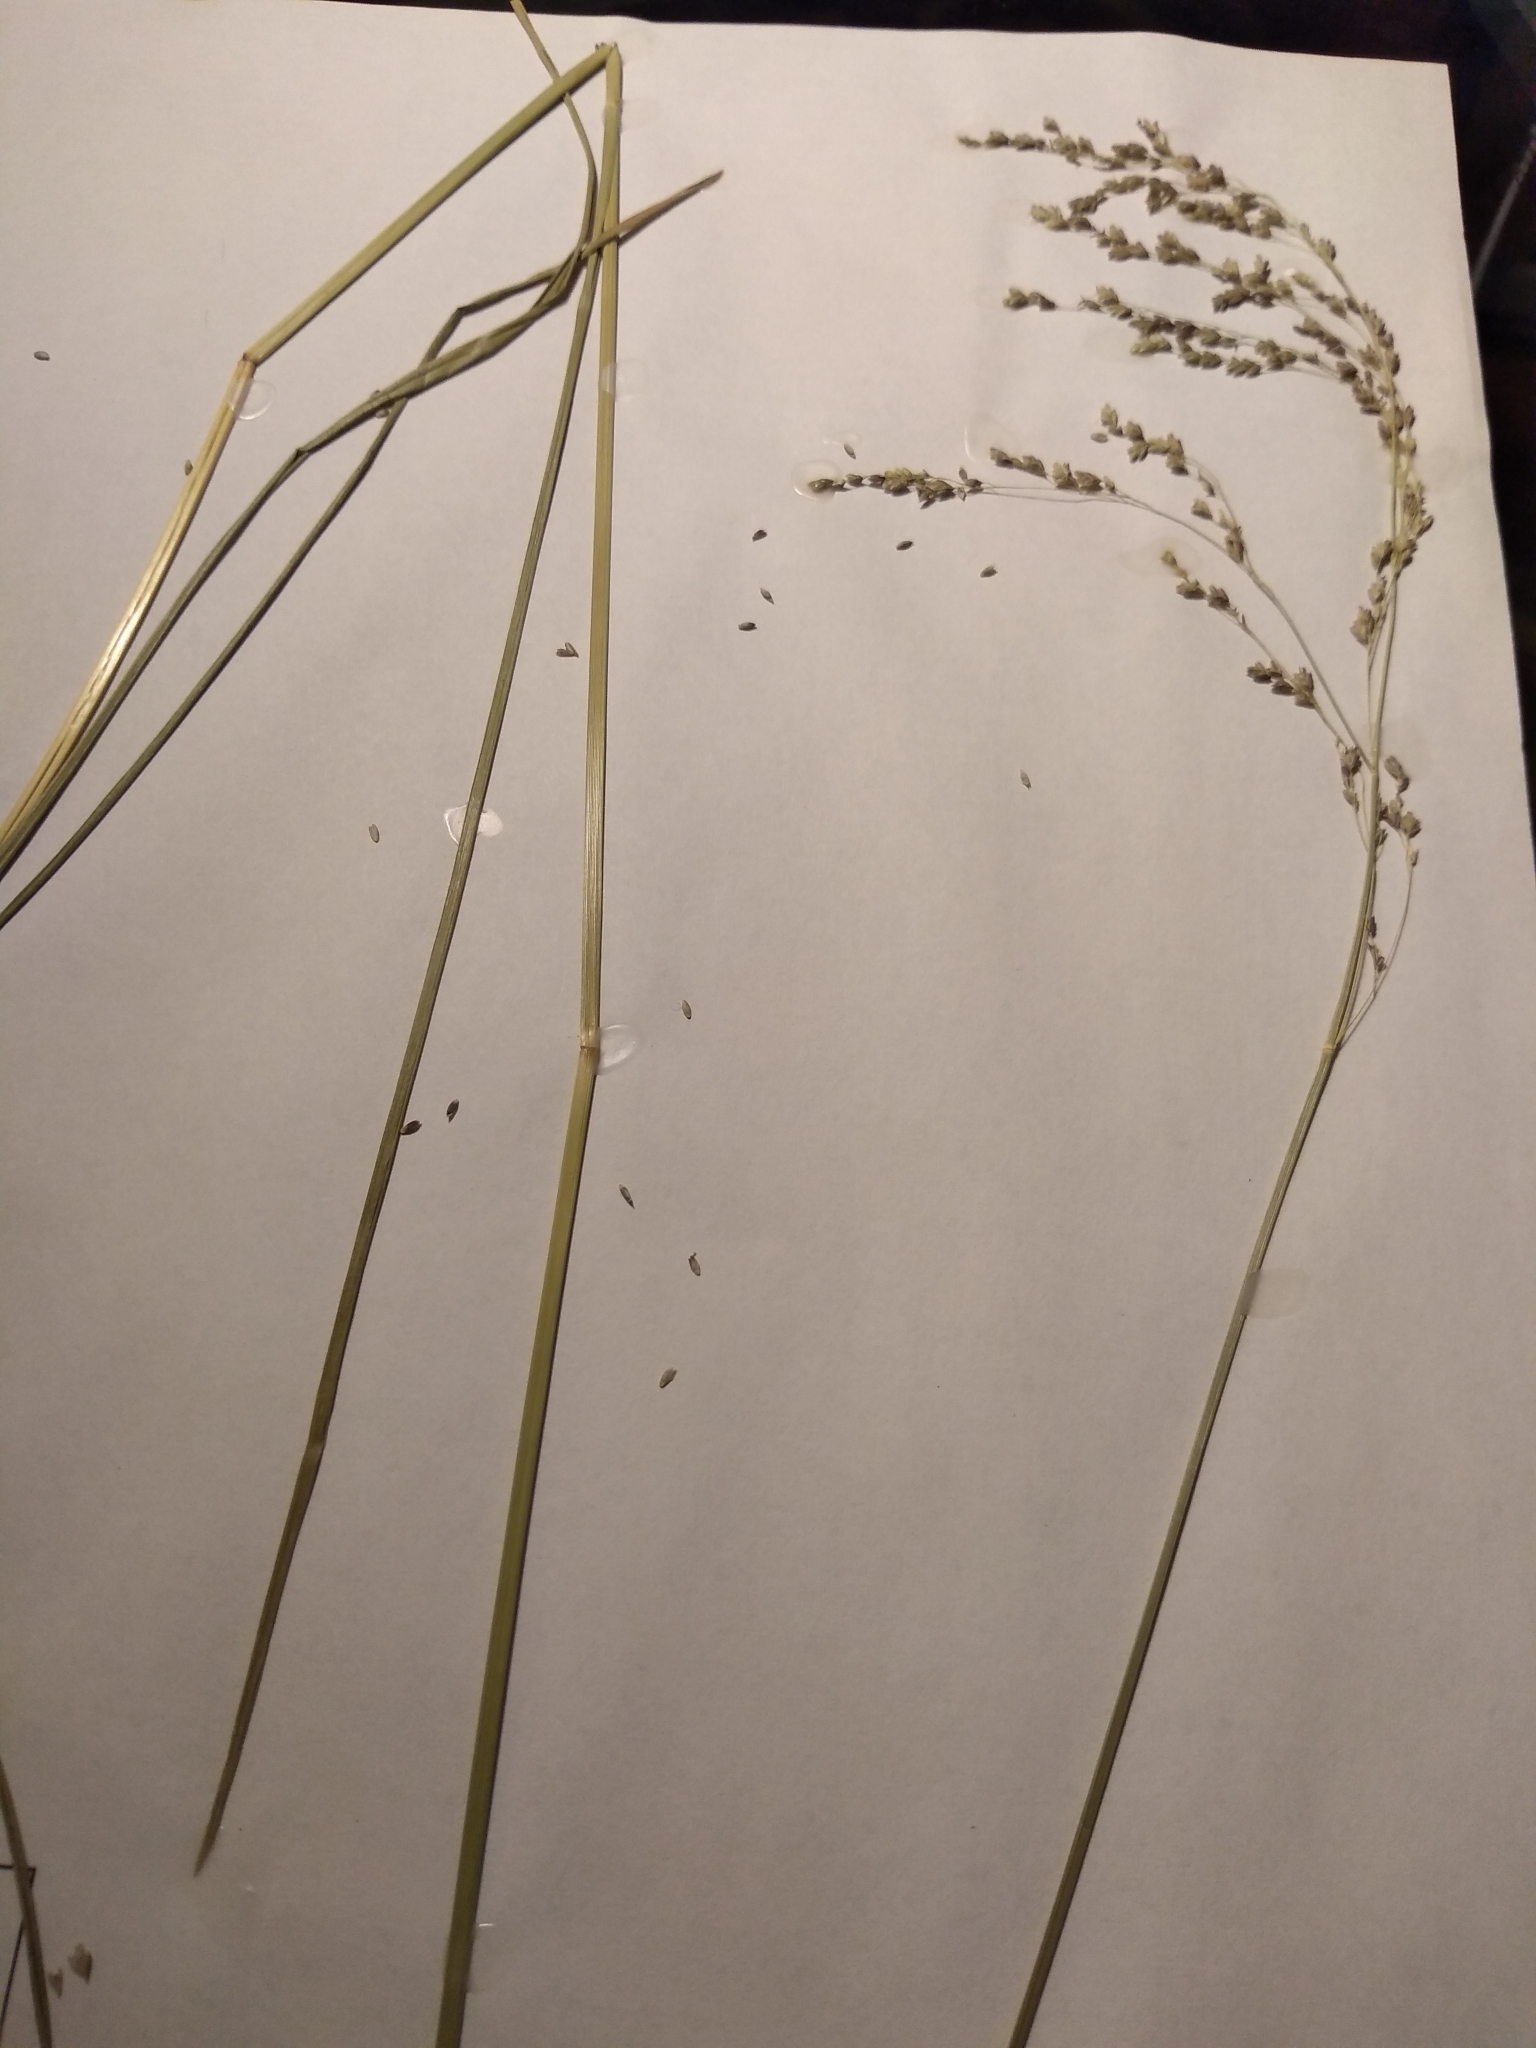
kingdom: Plantae
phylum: Tracheophyta
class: Liliopsida
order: Poales
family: Poaceae
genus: Glyceria
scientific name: Glyceria striata
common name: Fowl manna grass
